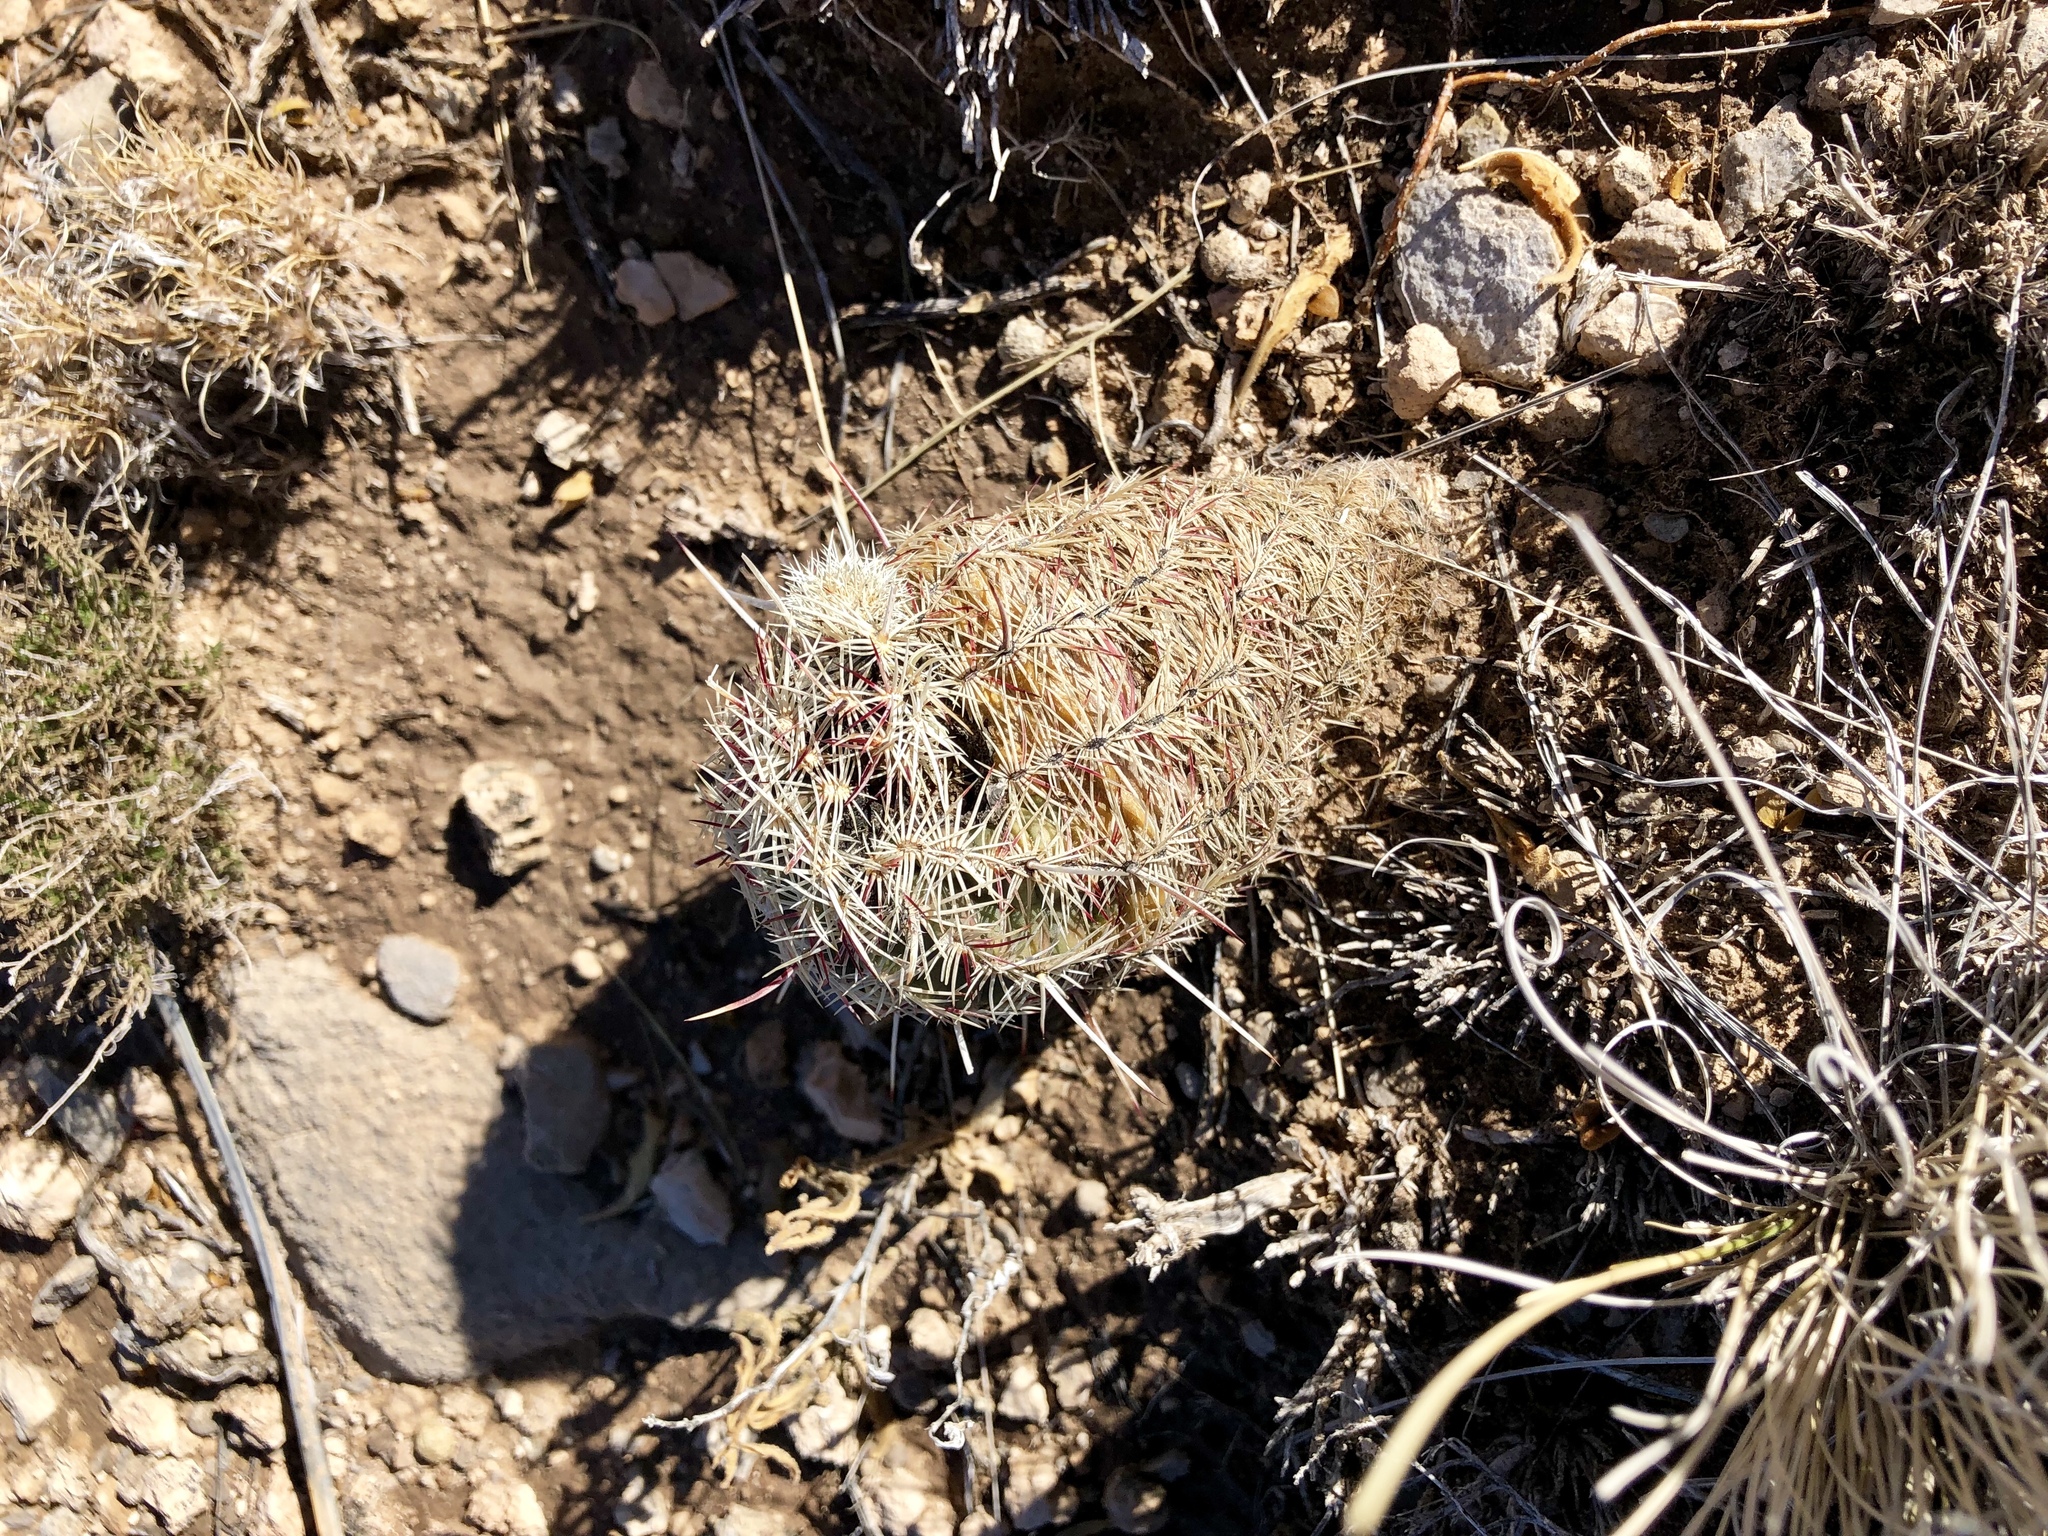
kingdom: Plantae
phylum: Tracheophyta
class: Magnoliopsida
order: Caryophyllales
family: Cactaceae
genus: Echinocereus
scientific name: Echinocereus viridiflorus
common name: Nylon hedgehog cactus
